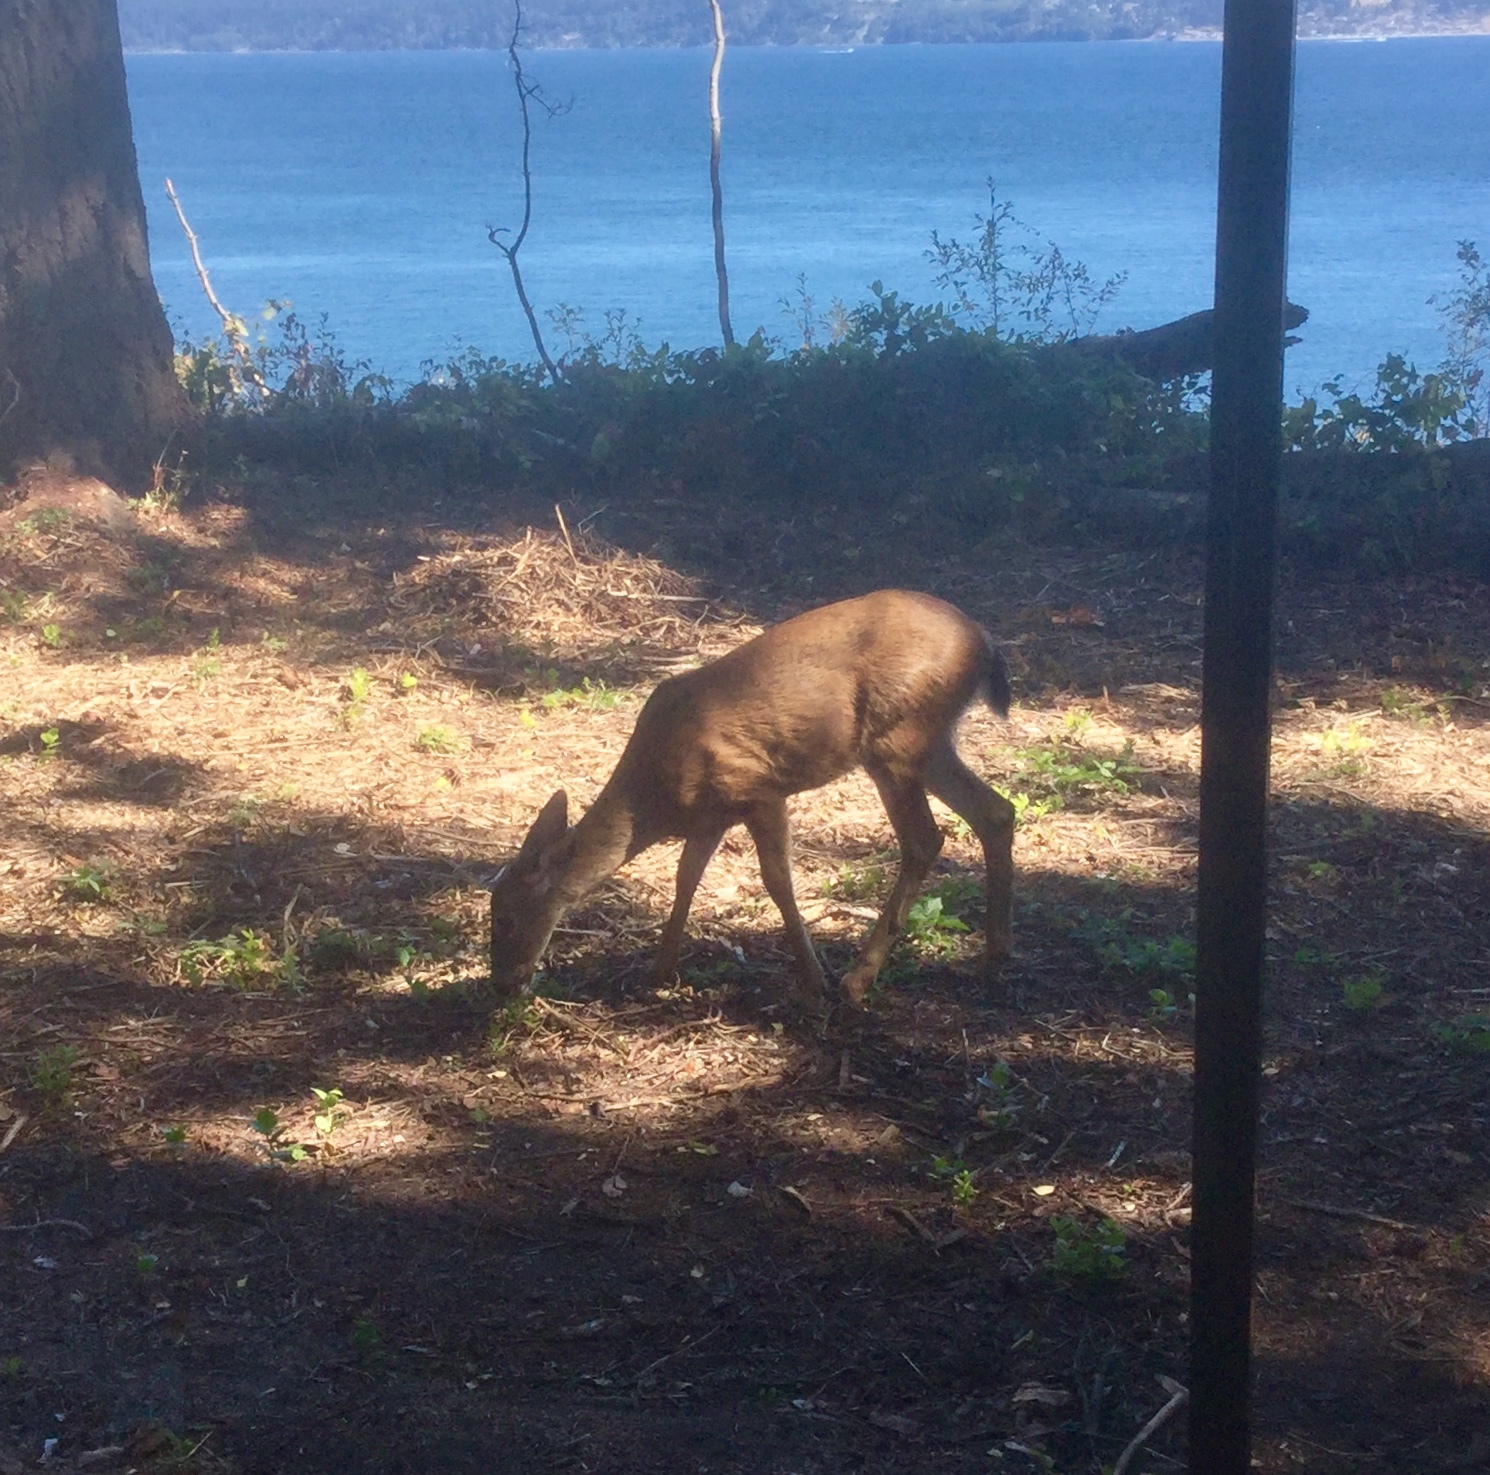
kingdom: Animalia
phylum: Chordata
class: Mammalia
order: Artiodactyla
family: Cervidae
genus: Odocoileus
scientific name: Odocoileus hemionus
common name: Mule deer
